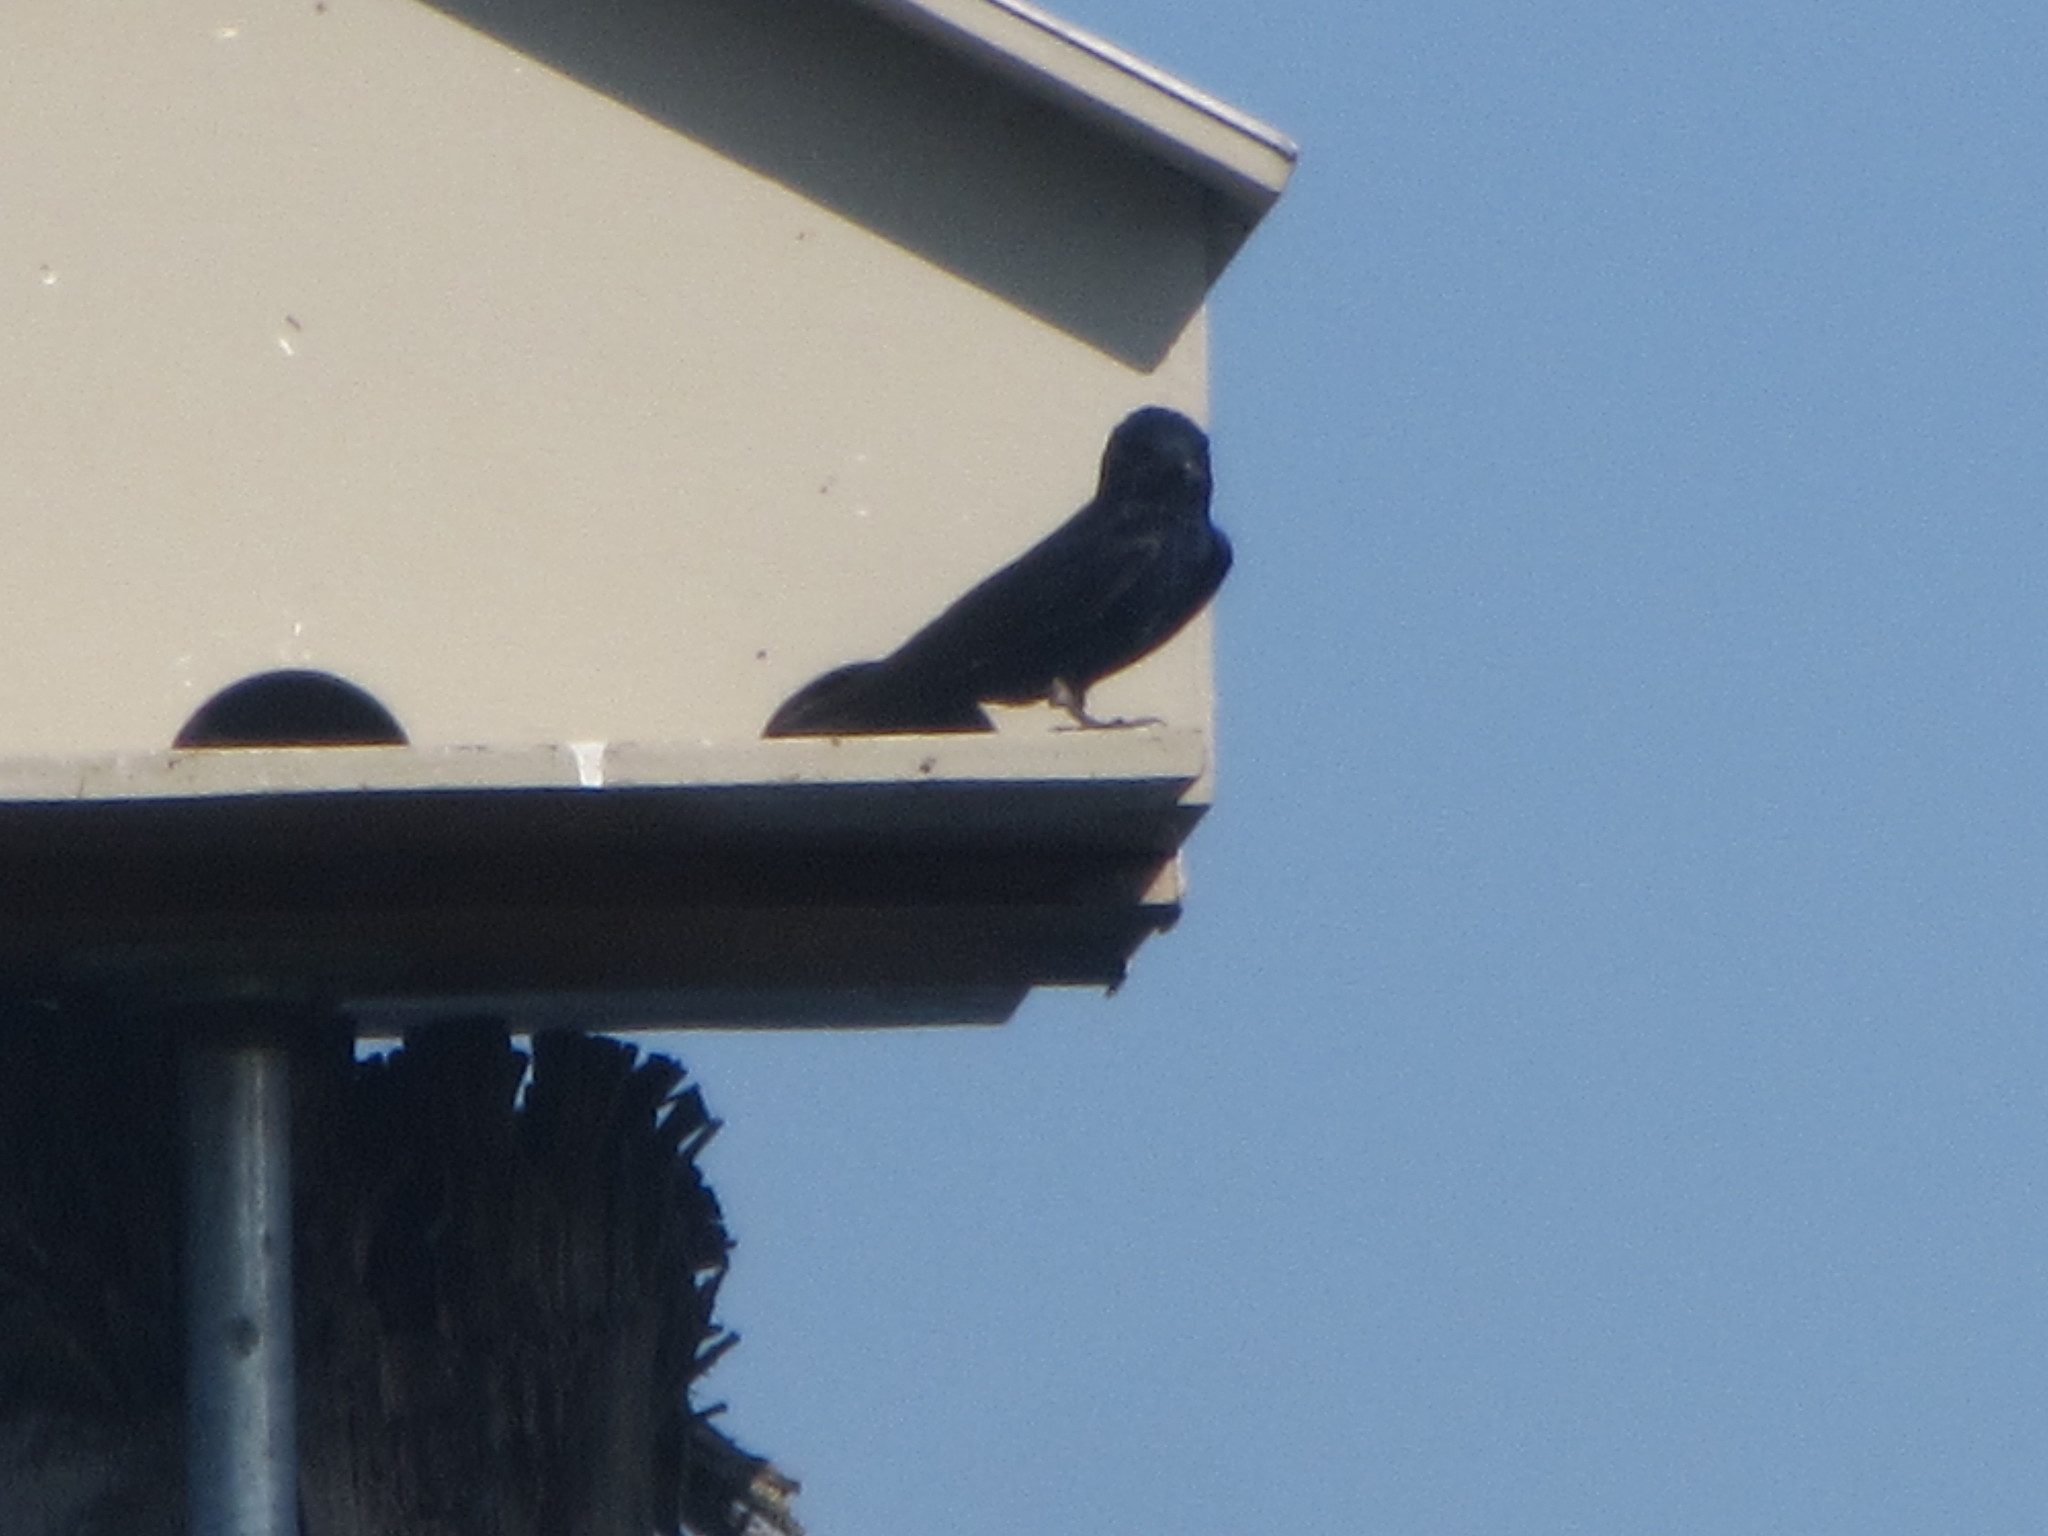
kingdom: Animalia
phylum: Chordata
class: Aves
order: Passeriformes
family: Hirundinidae
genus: Progne
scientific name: Progne subis
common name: Purple martin
